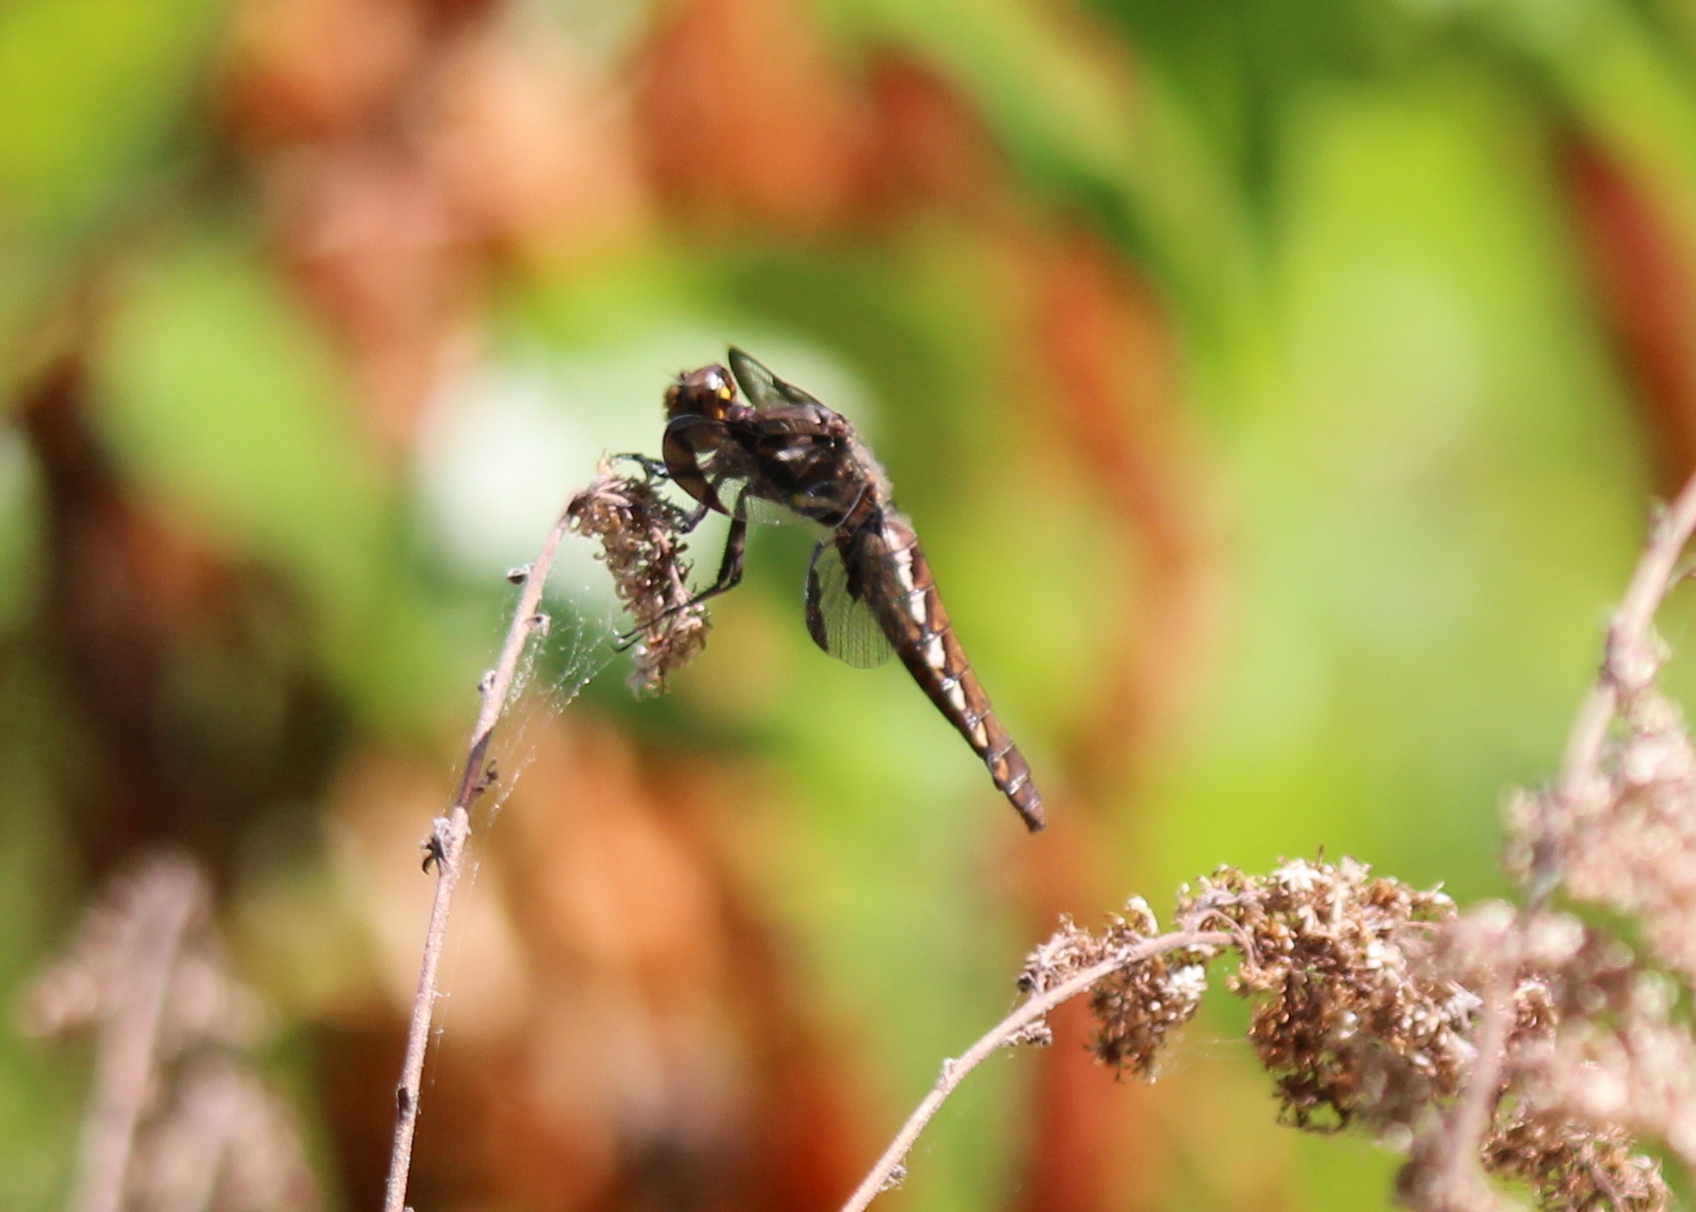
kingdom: Animalia
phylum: Arthropoda
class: Insecta
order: Odonata
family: Libellulidae
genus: Plathemis
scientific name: Plathemis lydia
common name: Common whitetail
